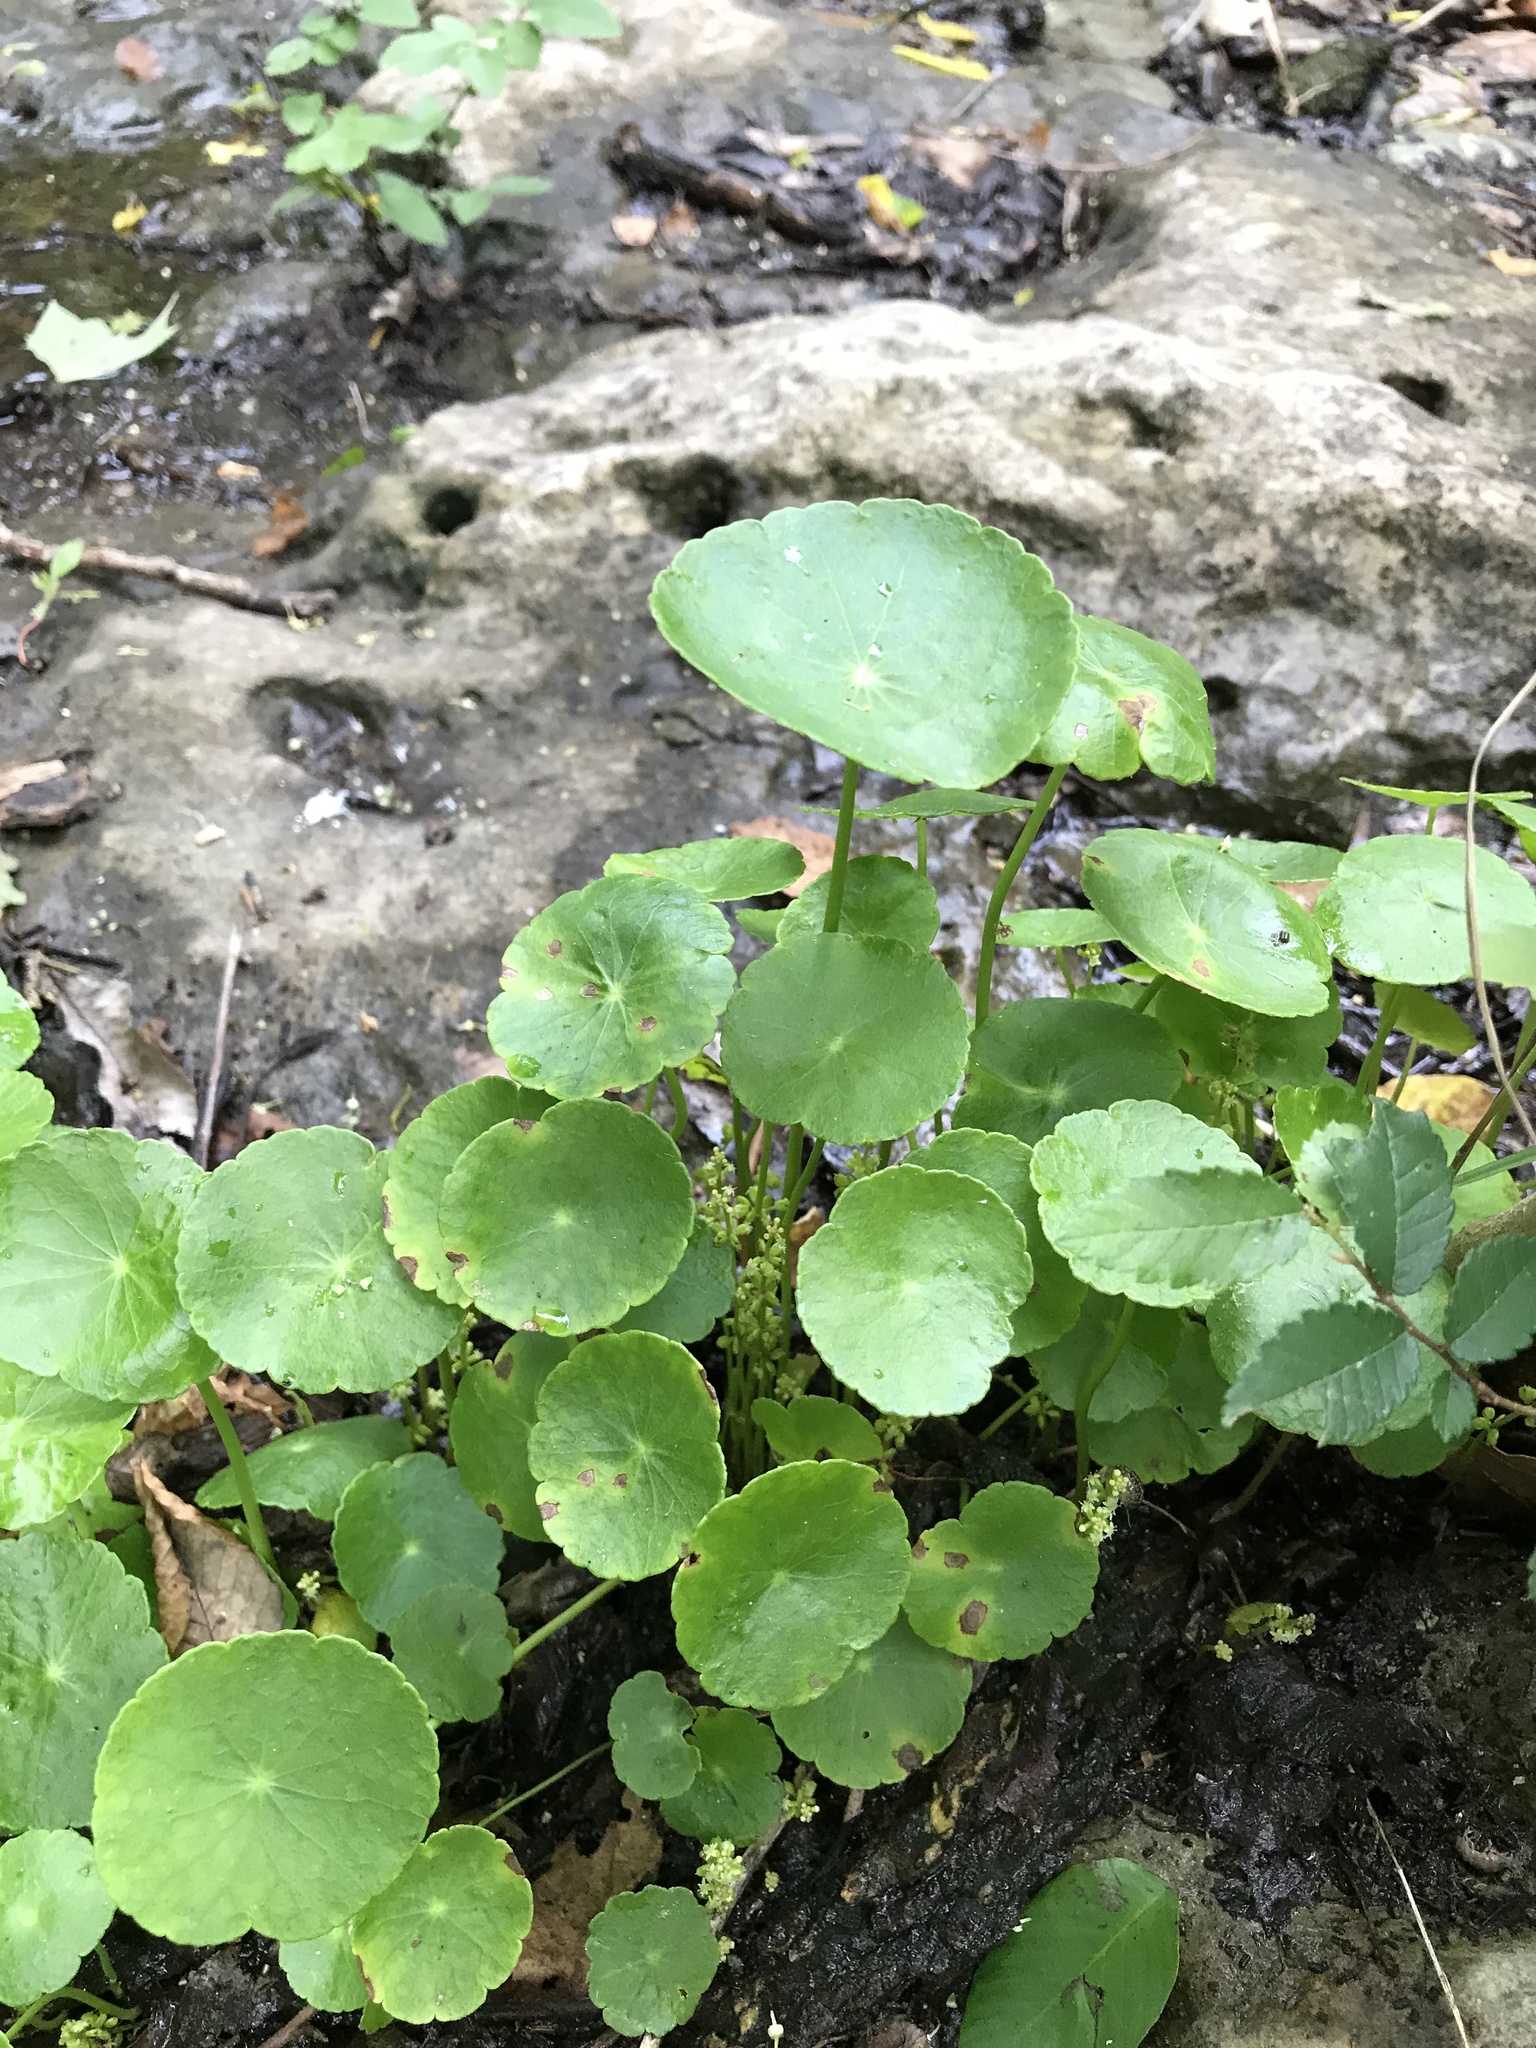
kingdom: Plantae
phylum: Tracheophyta
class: Magnoliopsida
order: Apiales
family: Araliaceae
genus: Hydrocotyle
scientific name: Hydrocotyle verticillata
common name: Whorled marshpennywort
